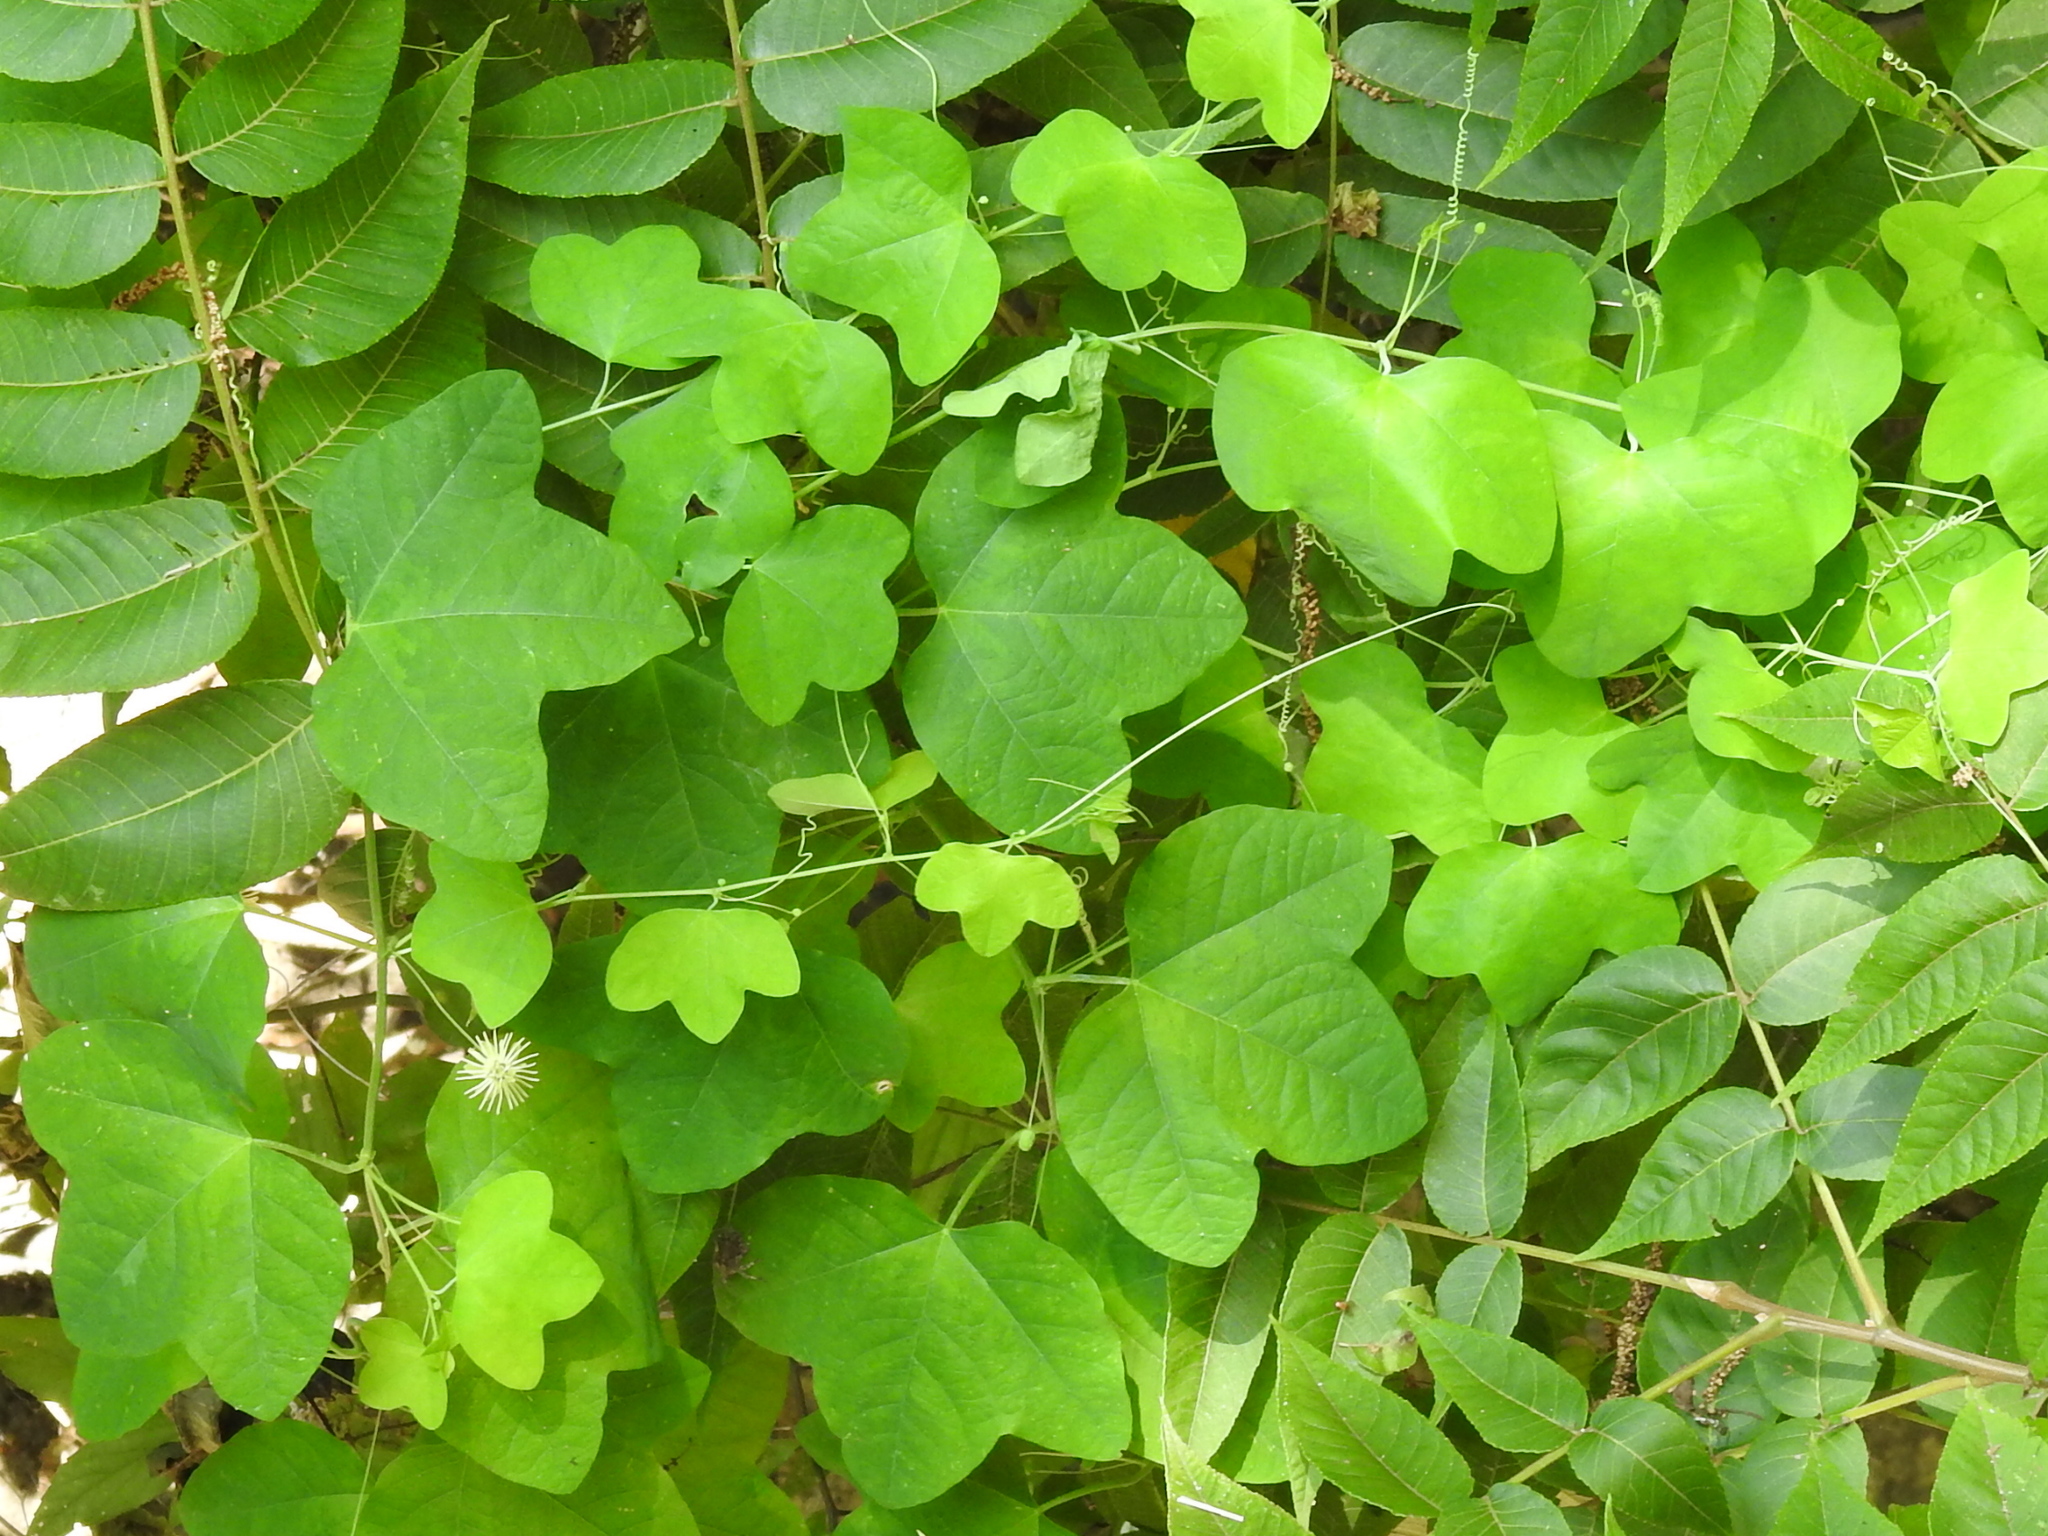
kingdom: Plantae
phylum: Tracheophyta
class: Magnoliopsida
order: Malpighiales
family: Passifloraceae
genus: Passiflora
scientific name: Passiflora lutea
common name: Yellow passionflower
